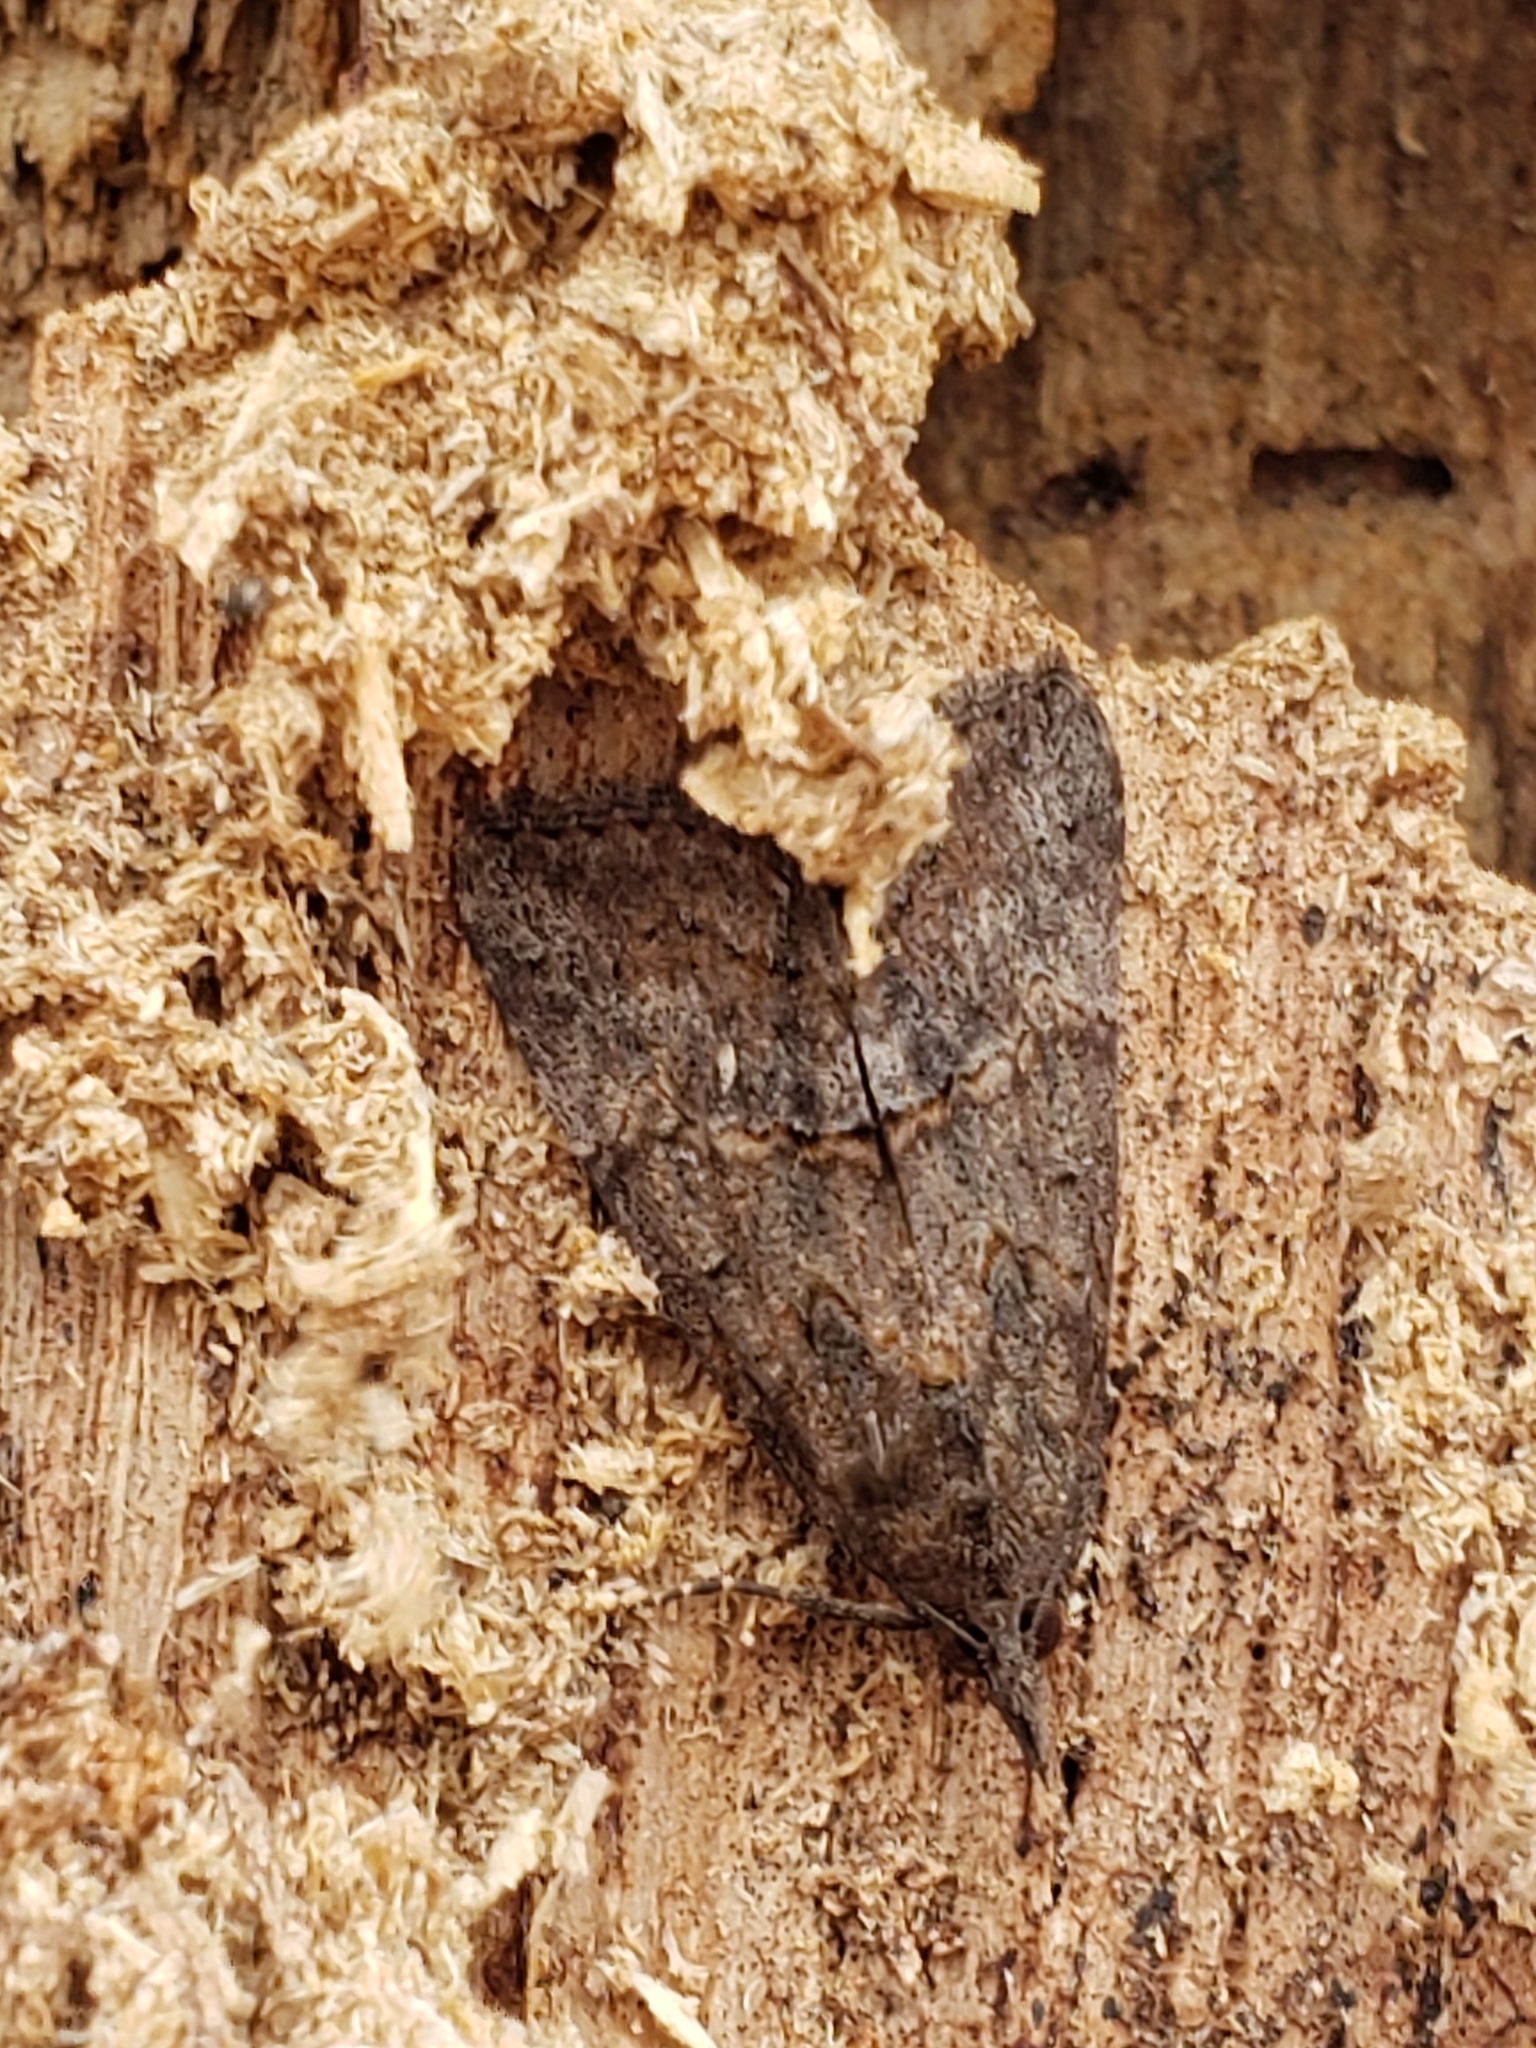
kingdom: Animalia
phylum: Arthropoda
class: Insecta
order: Lepidoptera
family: Erebidae
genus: Hypena
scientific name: Hypena scabra
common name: Green cloverworm
